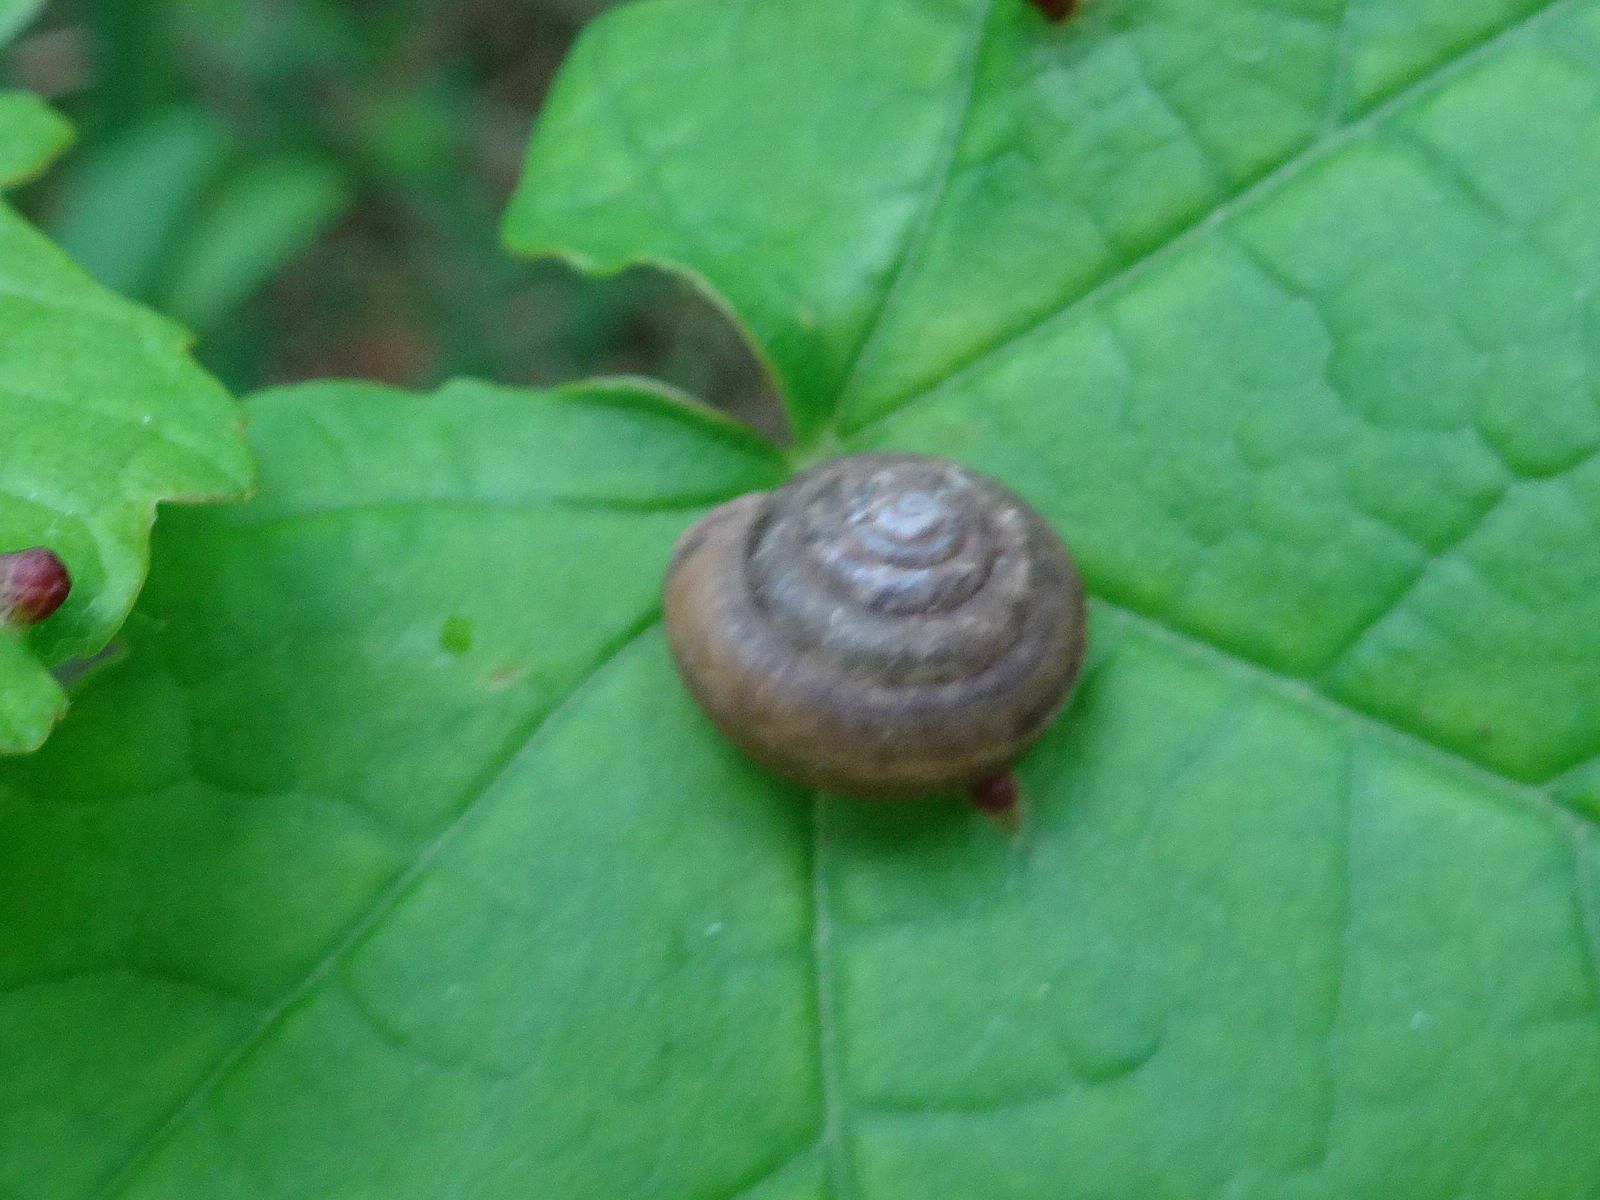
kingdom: Animalia
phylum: Mollusca
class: Gastropoda
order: Stylommatophora
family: Hygromiidae
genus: Trochulus
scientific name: Trochulus hispidus
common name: Hairy snail
